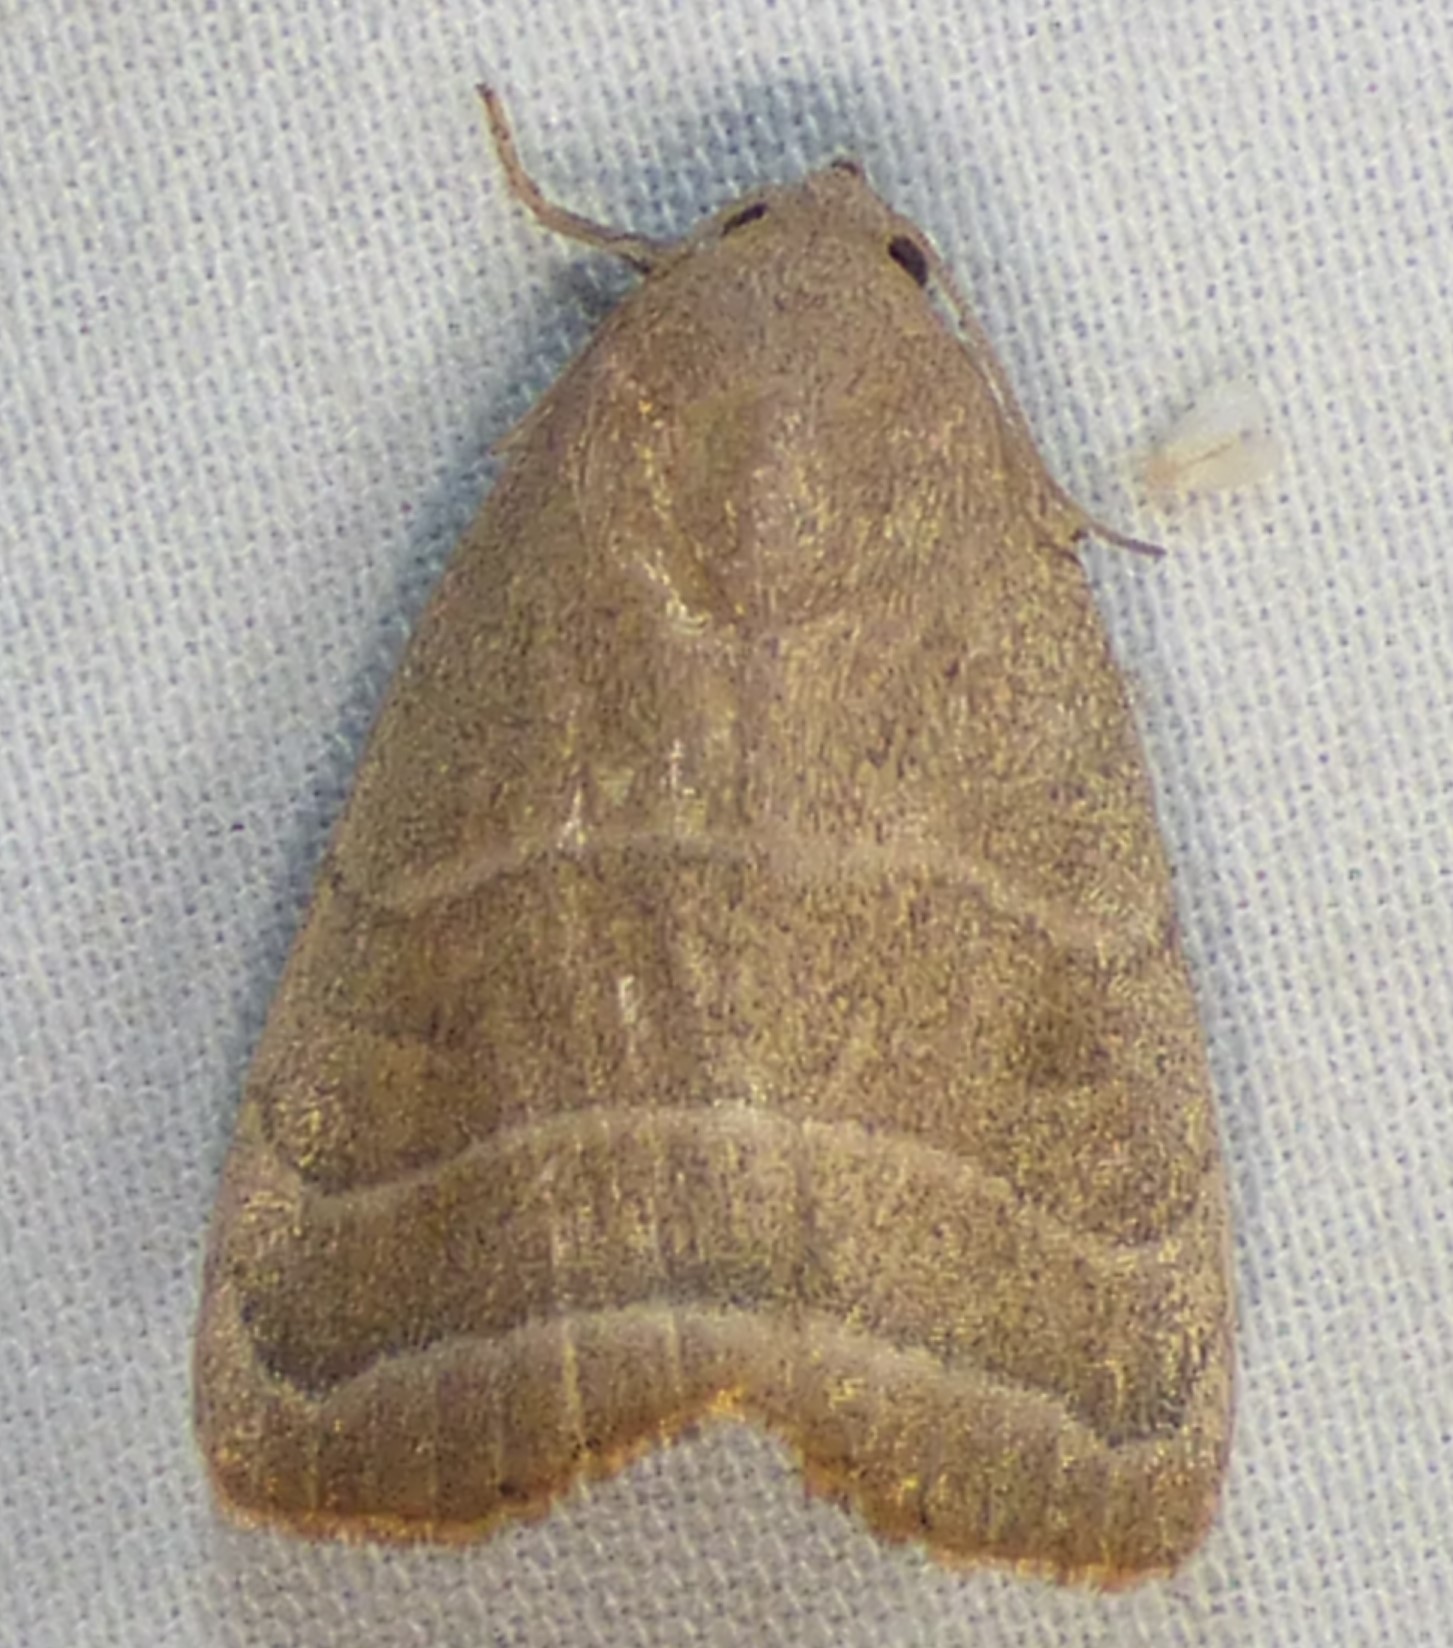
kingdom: Animalia
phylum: Arthropoda
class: Insecta
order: Lepidoptera
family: Noctuidae
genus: Bagisara
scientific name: Bagisara rectifascia
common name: Straight lined mallow moth
